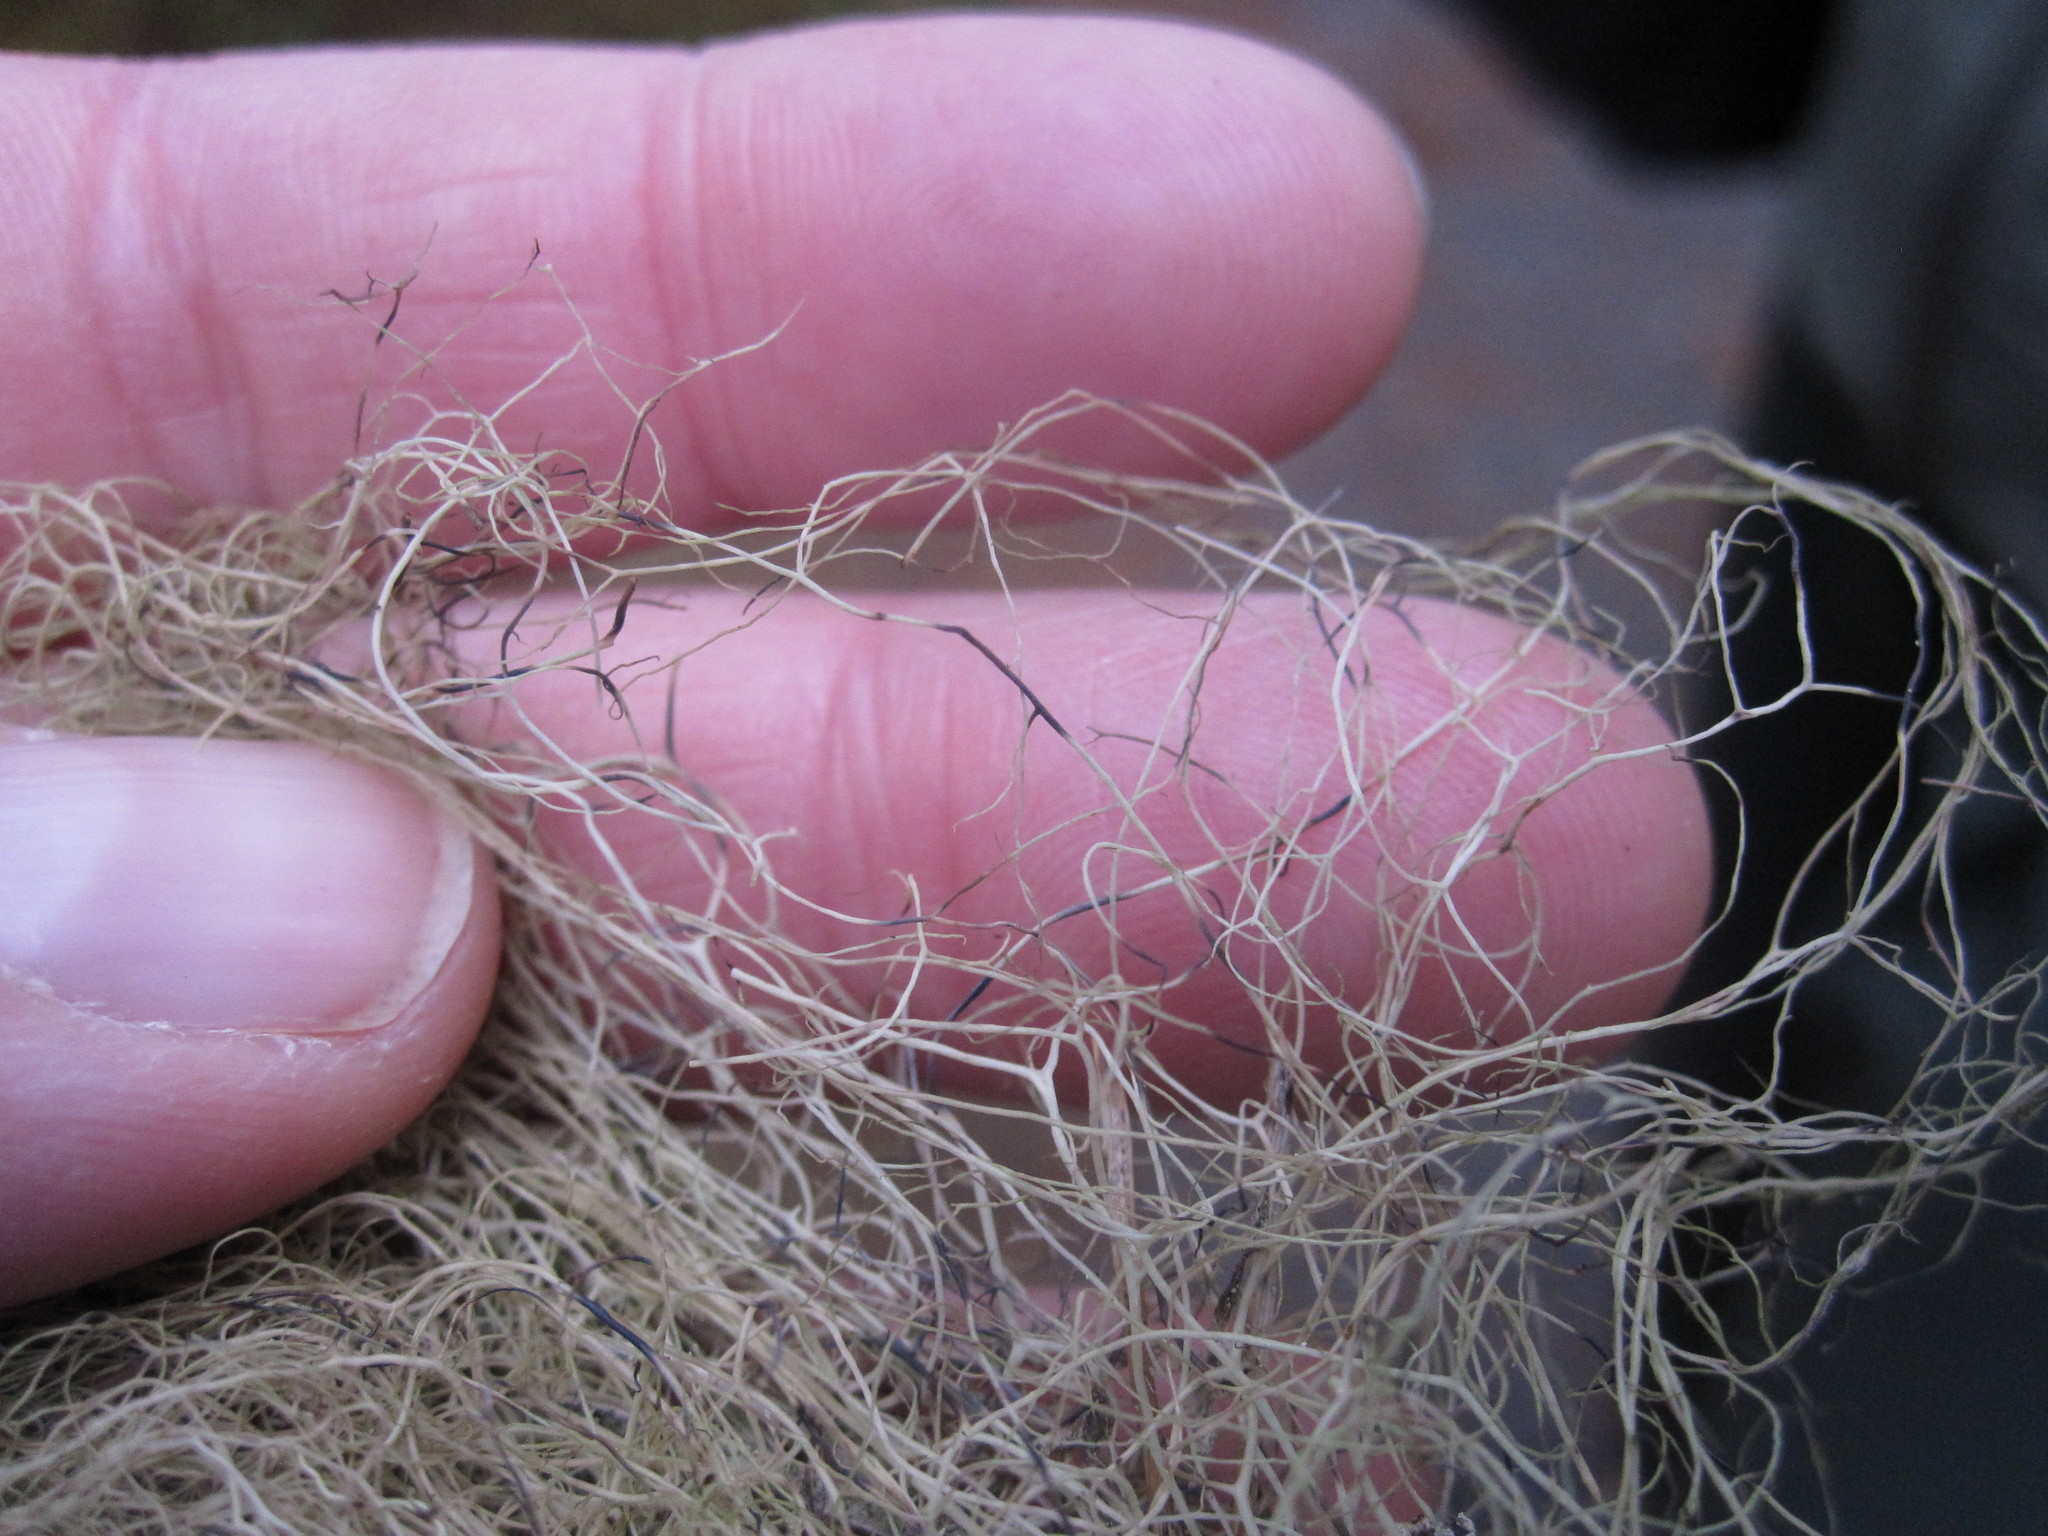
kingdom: Fungi
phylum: Ascomycota
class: Lecanoromycetes
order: Lecanorales
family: Parmeliaceae
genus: Bryoria
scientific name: Bryoria fuscescens
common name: Pale-footed horsehair lichen
